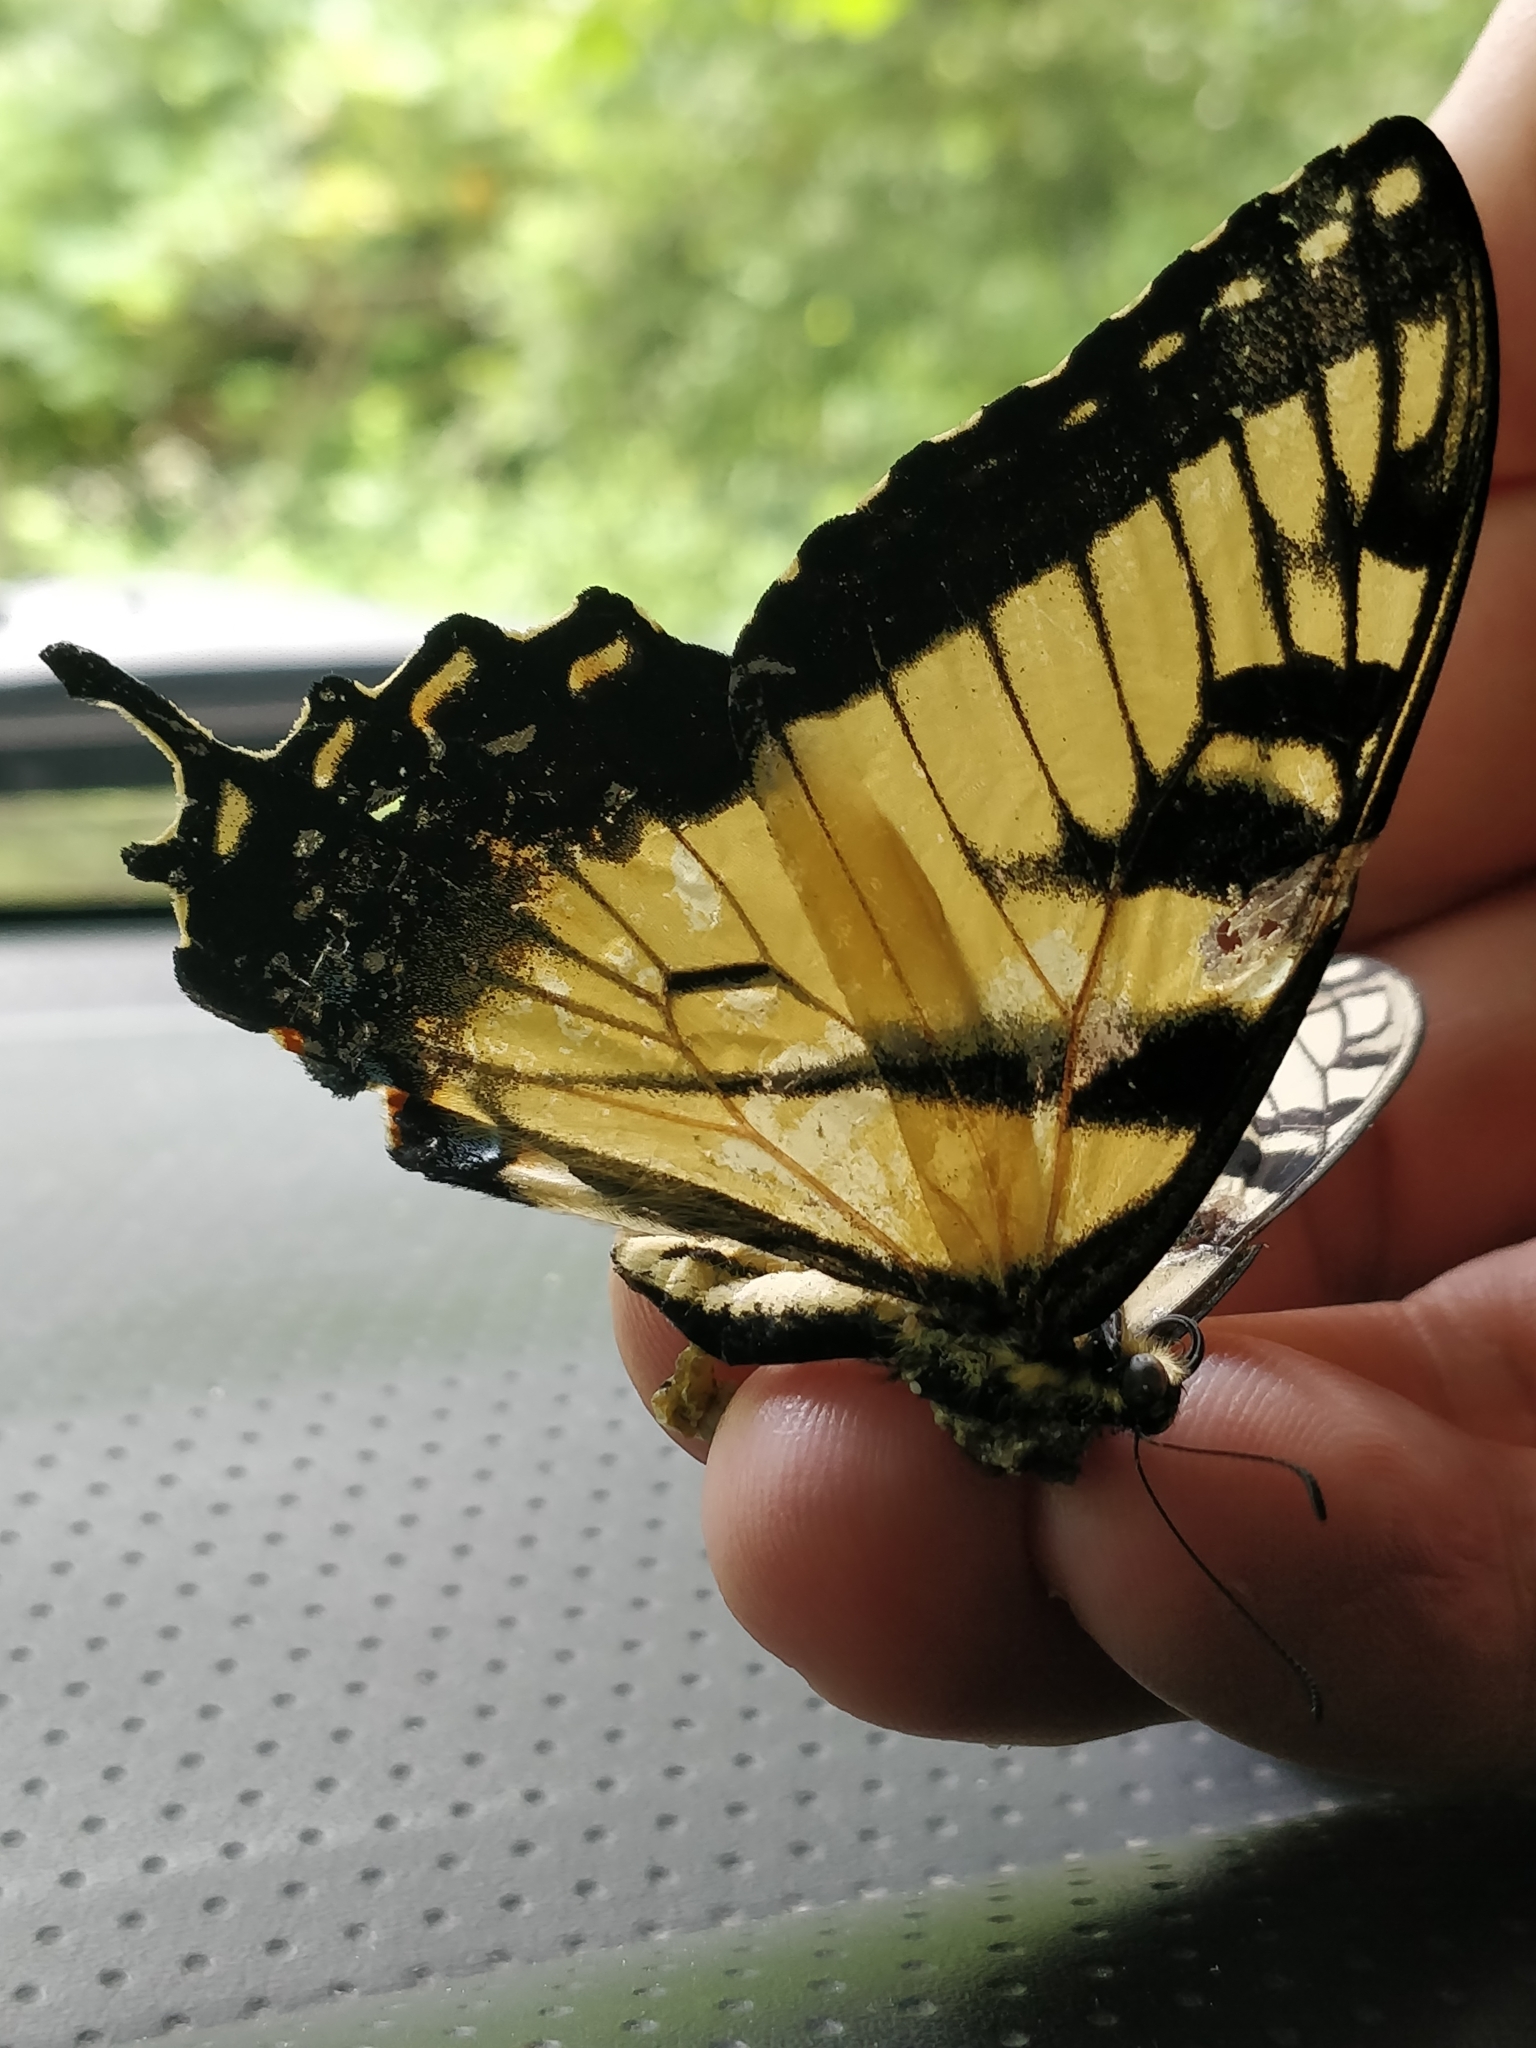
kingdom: Animalia
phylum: Arthropoda
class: Insecta
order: Lepidoptera
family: Papilionidae
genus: Papilio
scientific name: Papilio glaucus
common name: Tiger swallowtail
